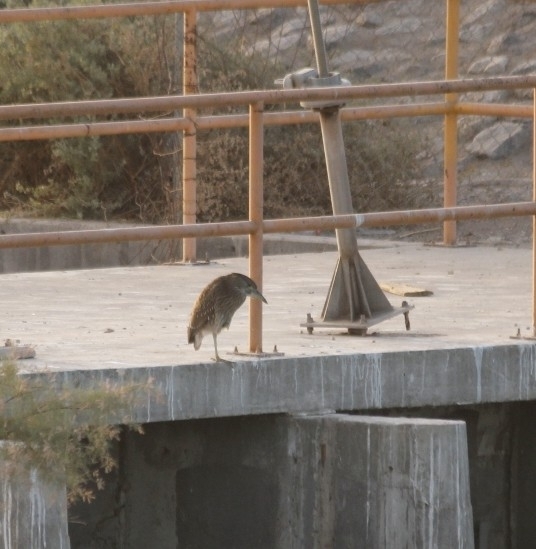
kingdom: Animalia
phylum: Chordata
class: Aves
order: Pelecaniformes
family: Ardeidae
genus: Nycticorax
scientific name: Nycticorax nycticorax
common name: Black-crowned night heron
